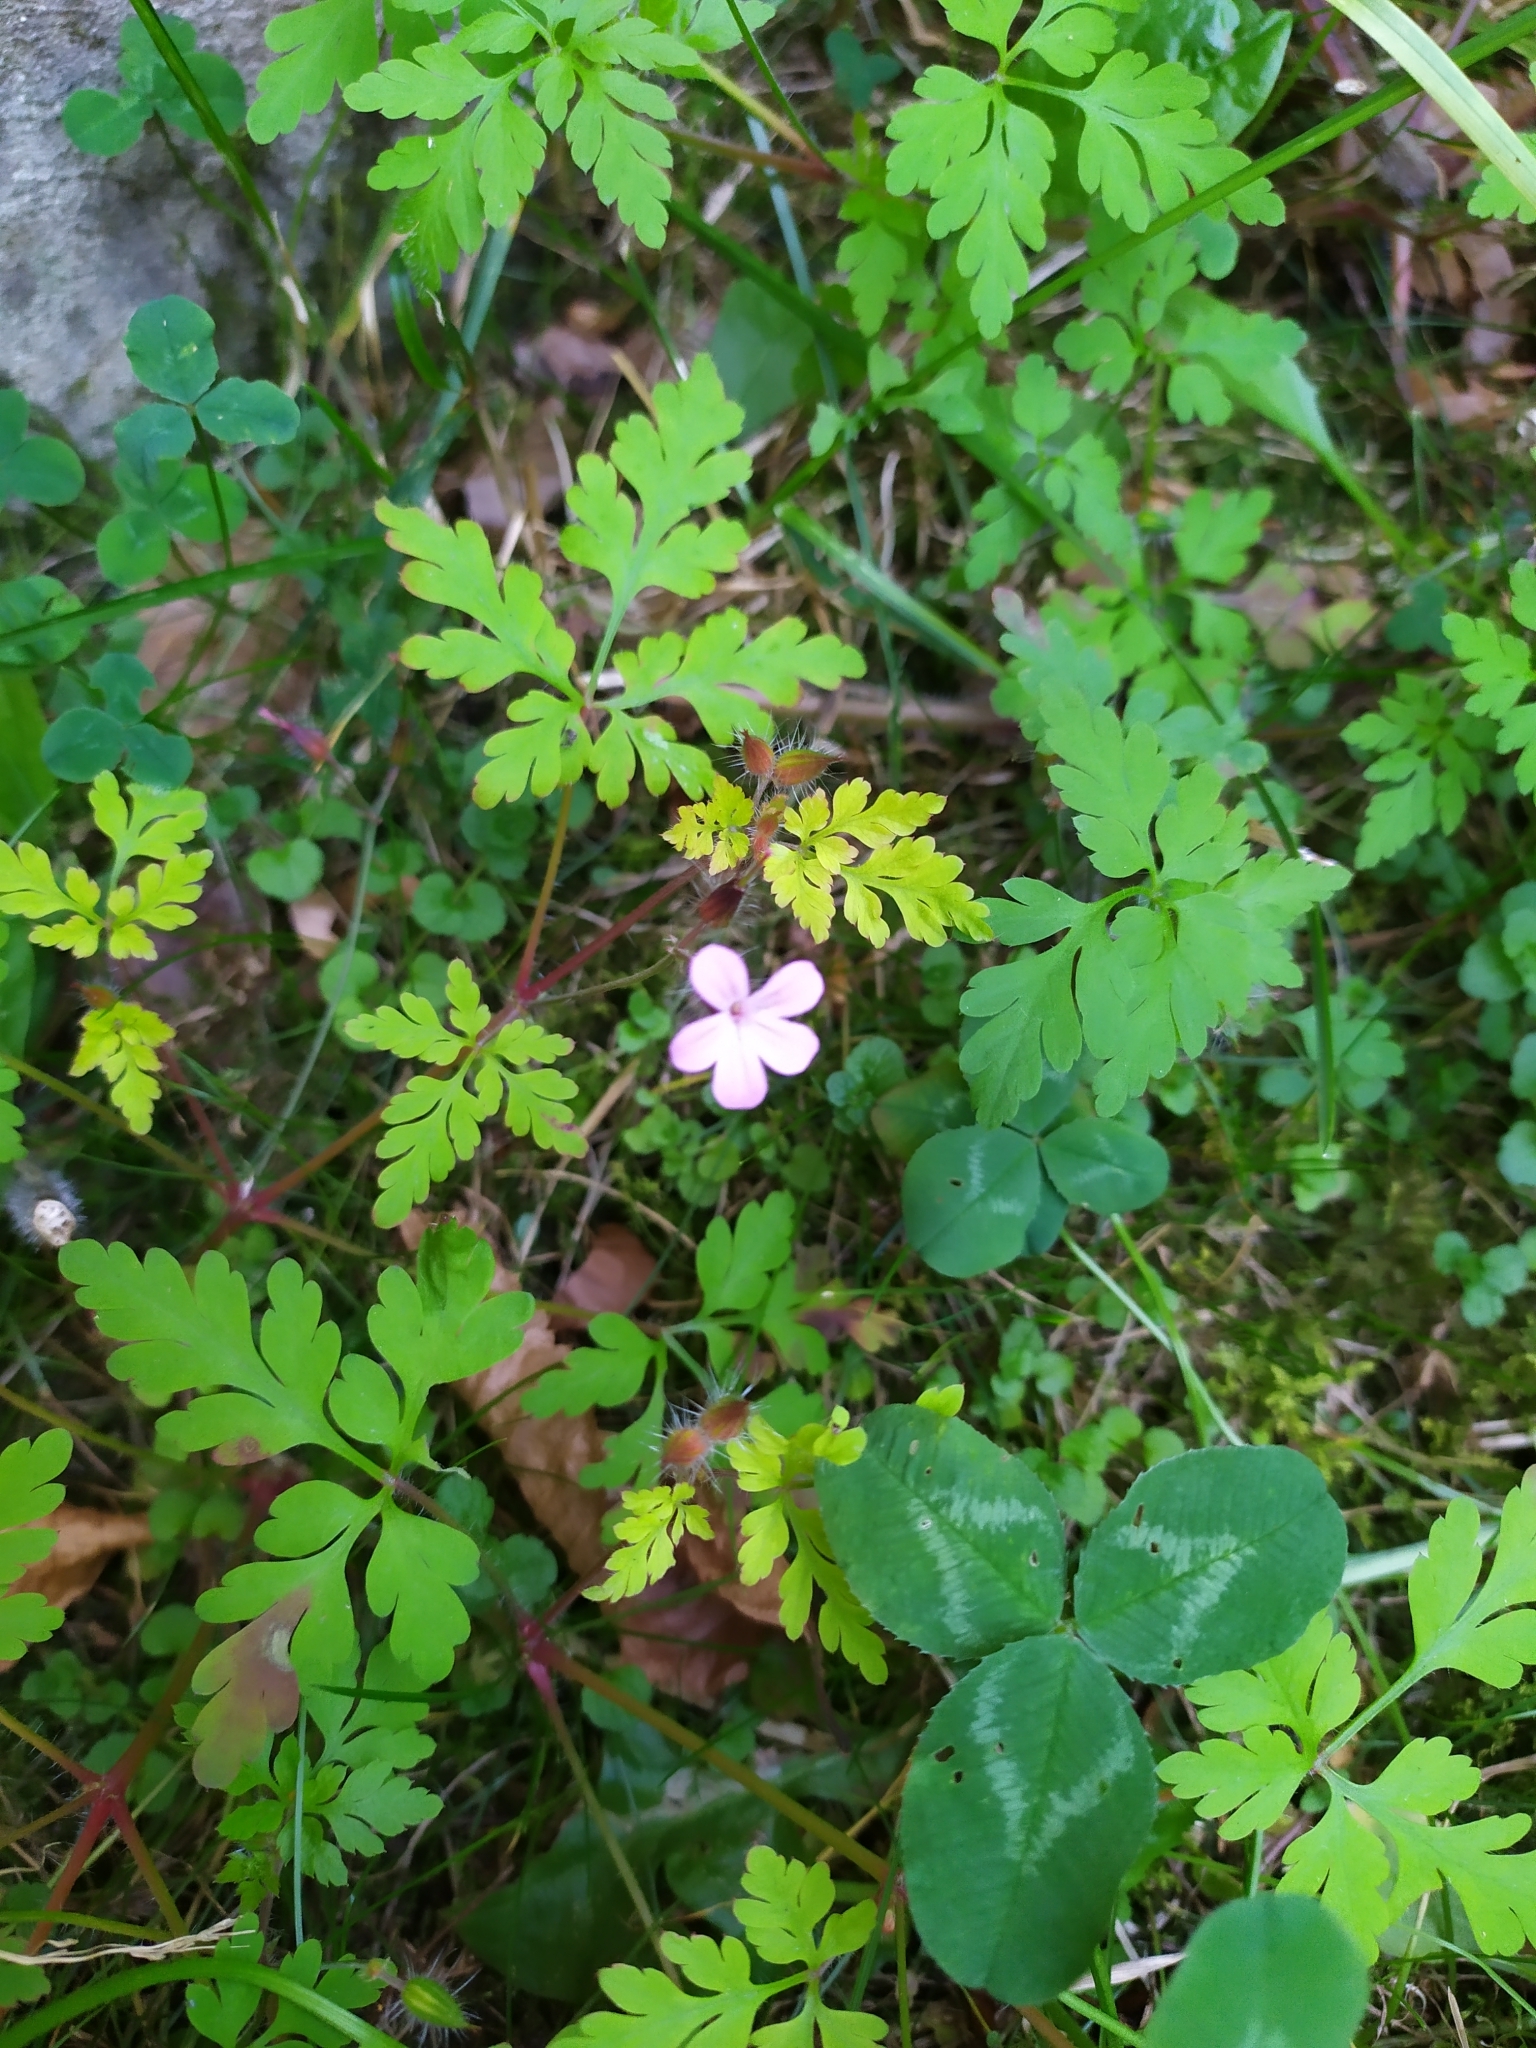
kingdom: Plantae
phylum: Tracheophyta
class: Magnoliopsida
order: Geraniales
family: Geraniaceae
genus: Geranium
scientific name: Geranium robertianum
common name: Herb-robert
